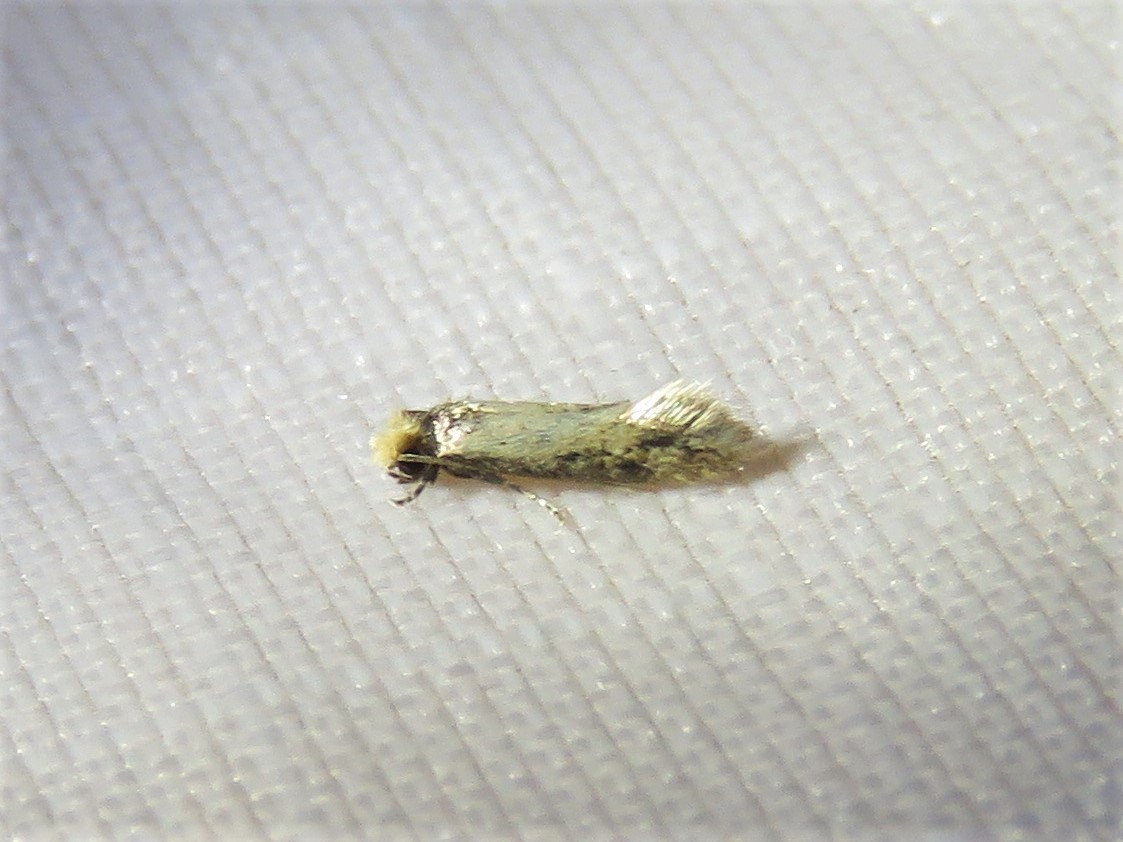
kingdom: Animalia
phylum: Arthropoda
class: Insecta
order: Lepidoptera
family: Meessiidae
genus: Homostinea
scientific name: Homostinea curviliniella
